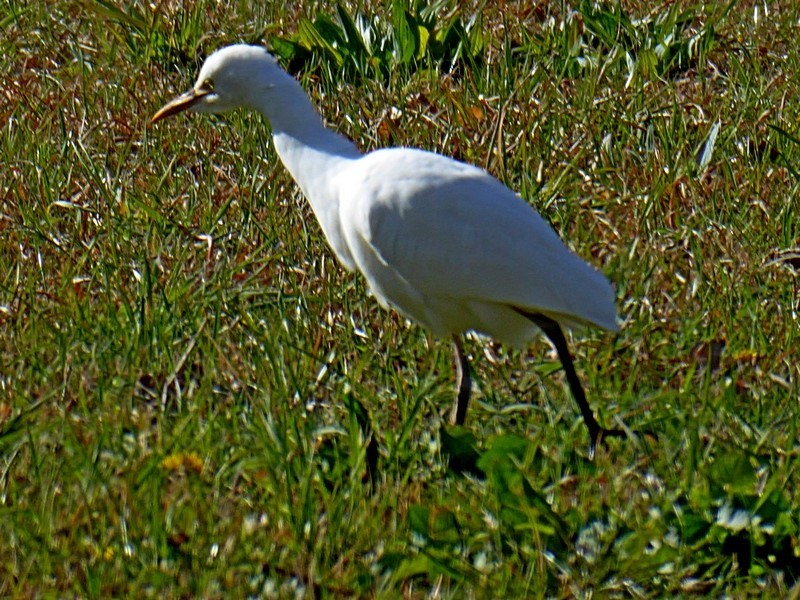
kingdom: Animalia
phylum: Chordata
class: Aves
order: Pelecaniformes
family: Ardeidae
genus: Bubulcus
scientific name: Bubulcus coromandus
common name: Eastern cattle egret
